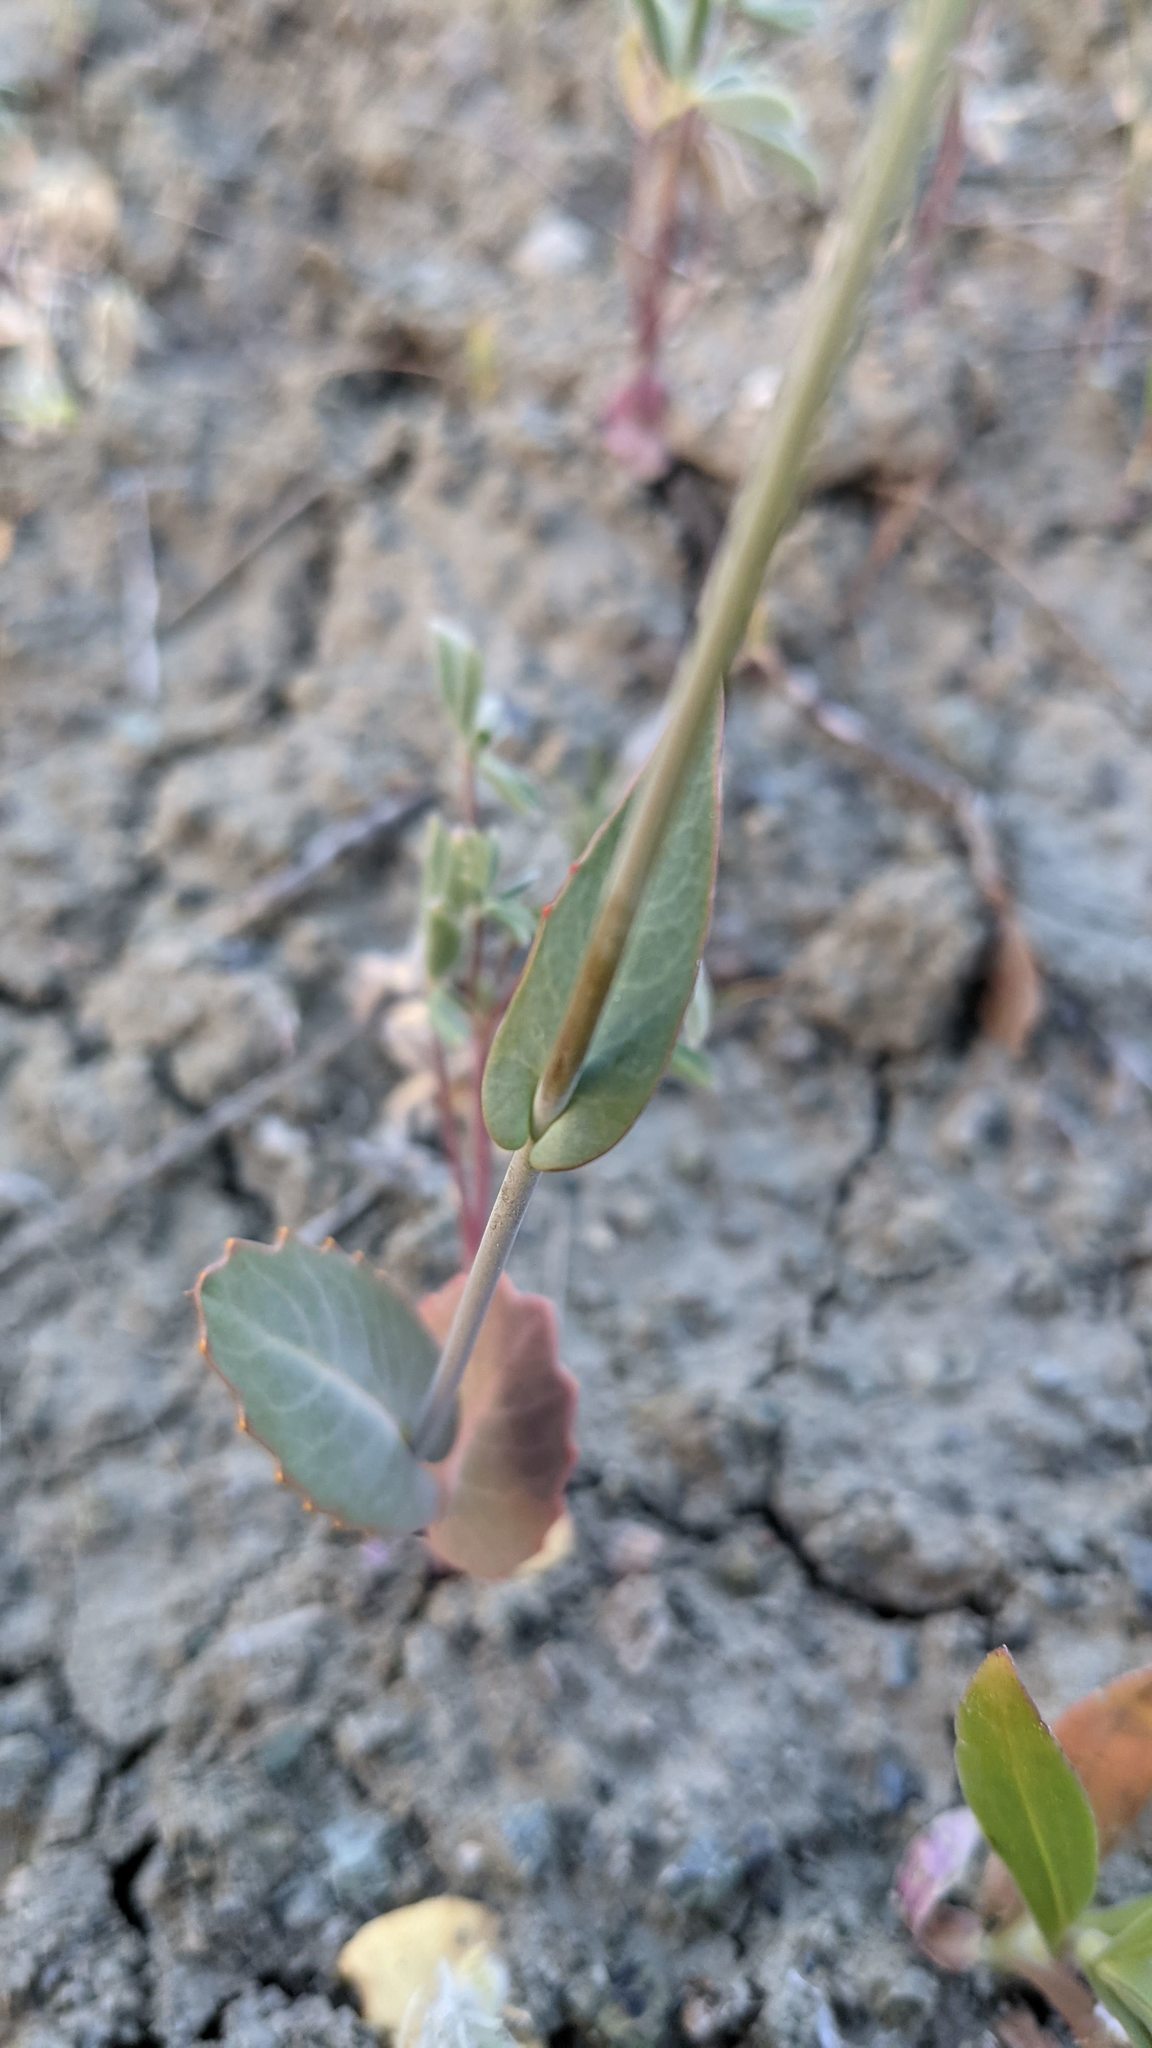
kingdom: Plantae
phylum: Tracheophyta
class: Magnoliopsida
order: Brassicales
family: Brassicaceae
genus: Streptanthus
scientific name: Streptanthus breweri
